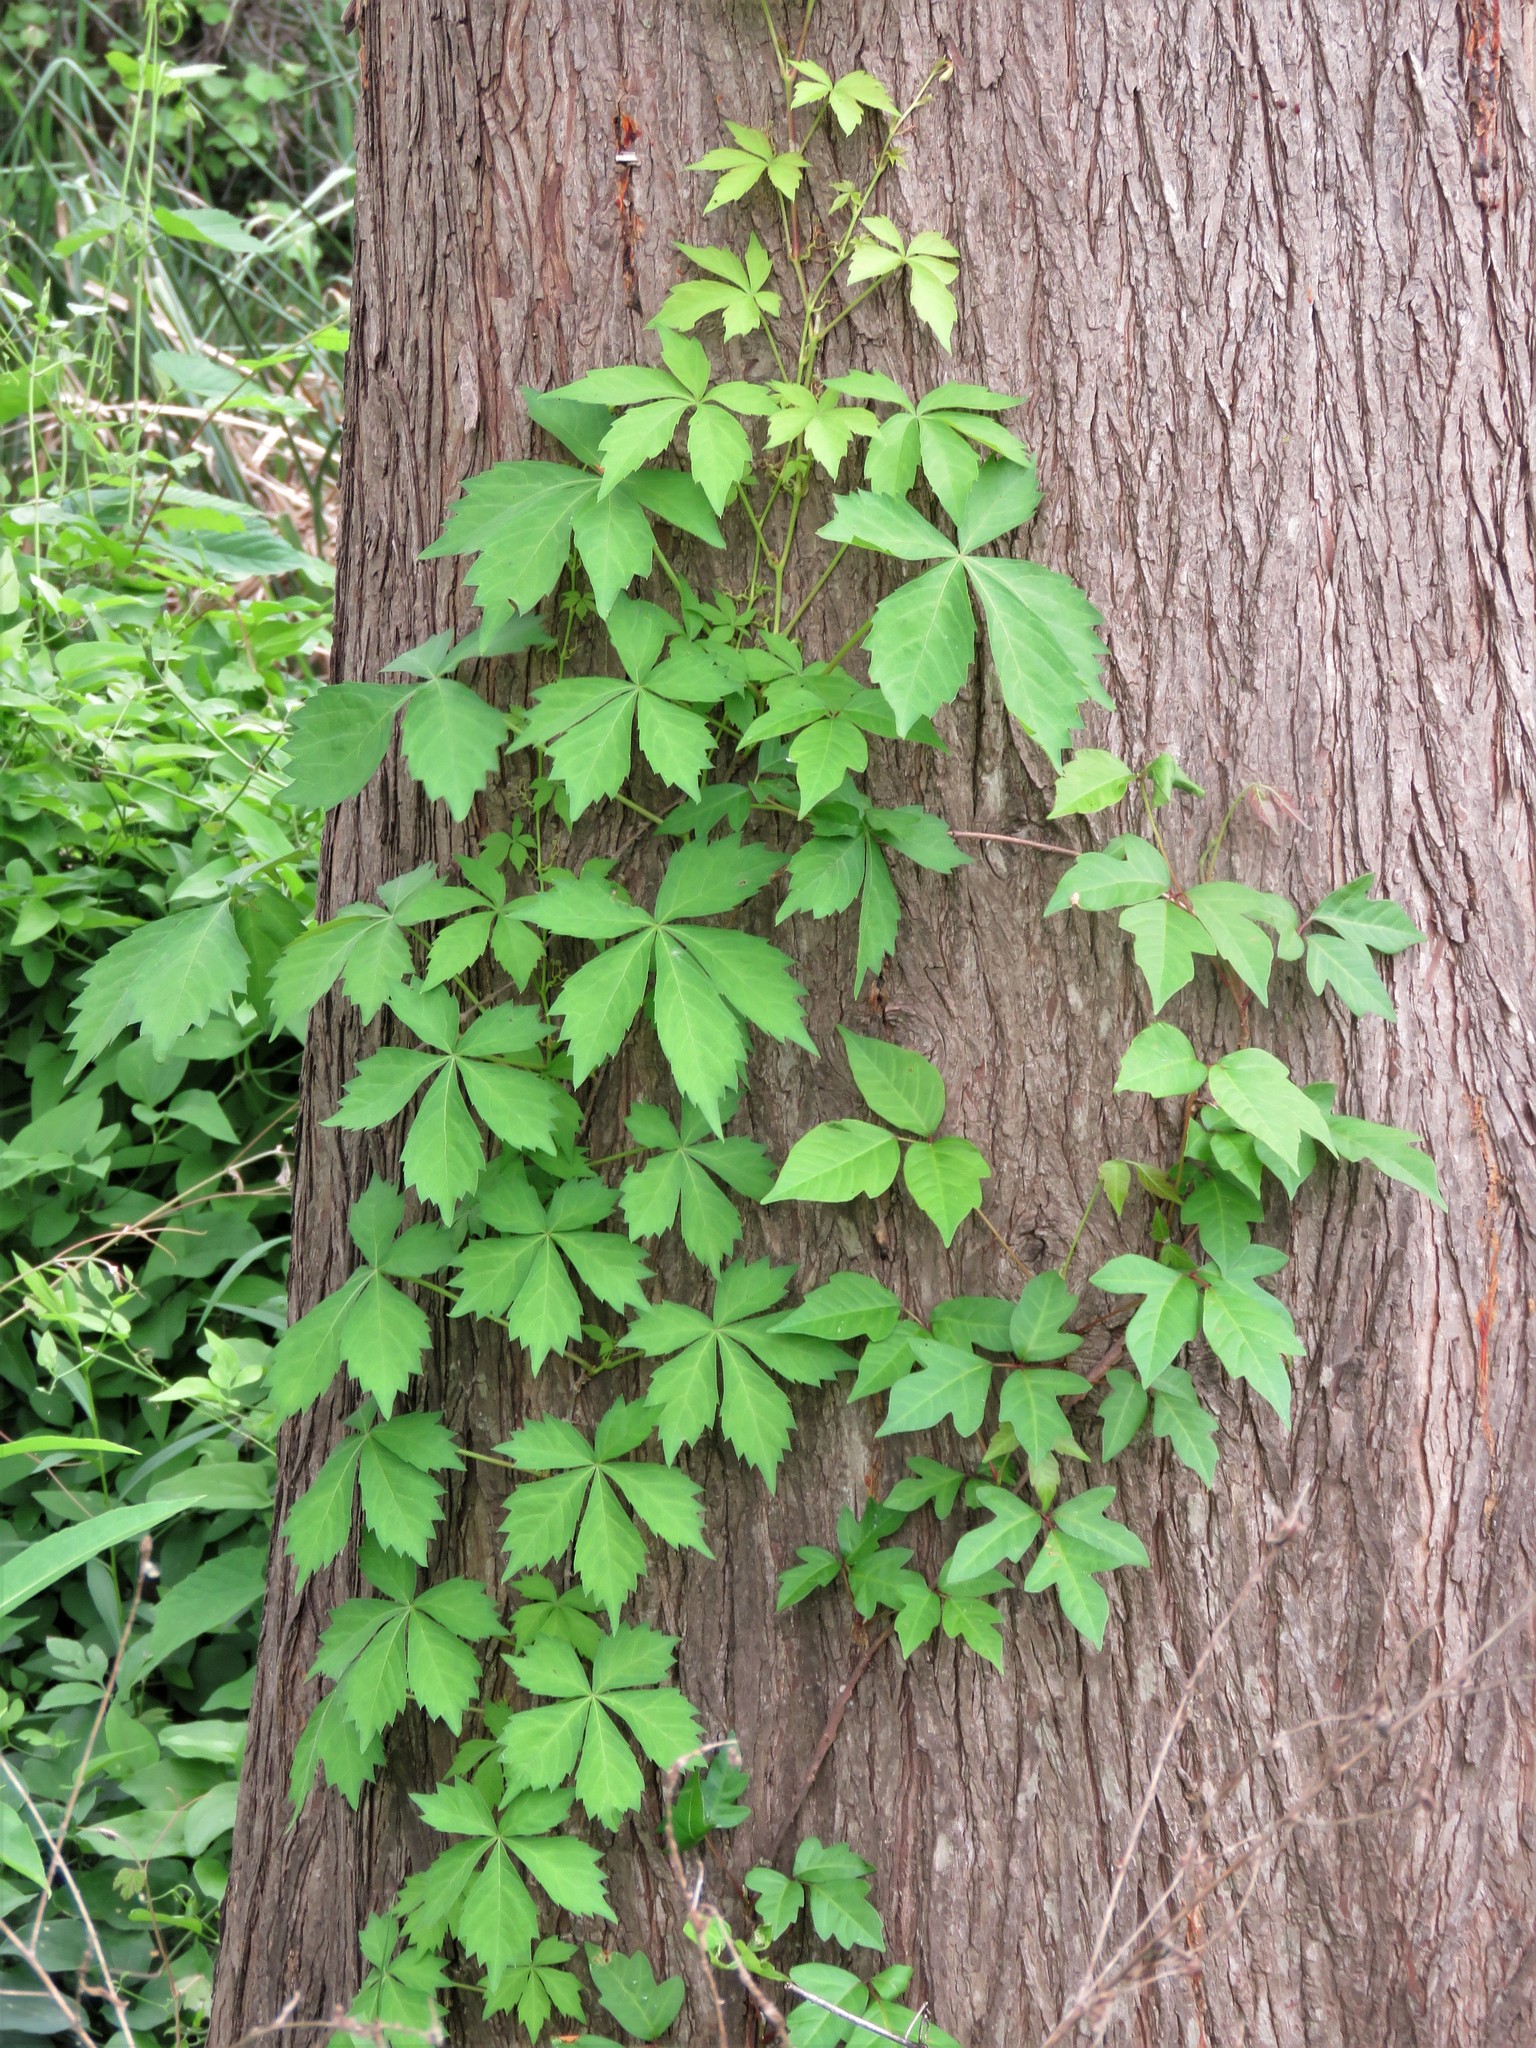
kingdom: Plantae
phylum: Tracheophyta
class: Magnoliopsida
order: Vitales
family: Vitaceae
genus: Parthenocissus
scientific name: Parthenocissus quinquefolia
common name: Virginia-creeper
